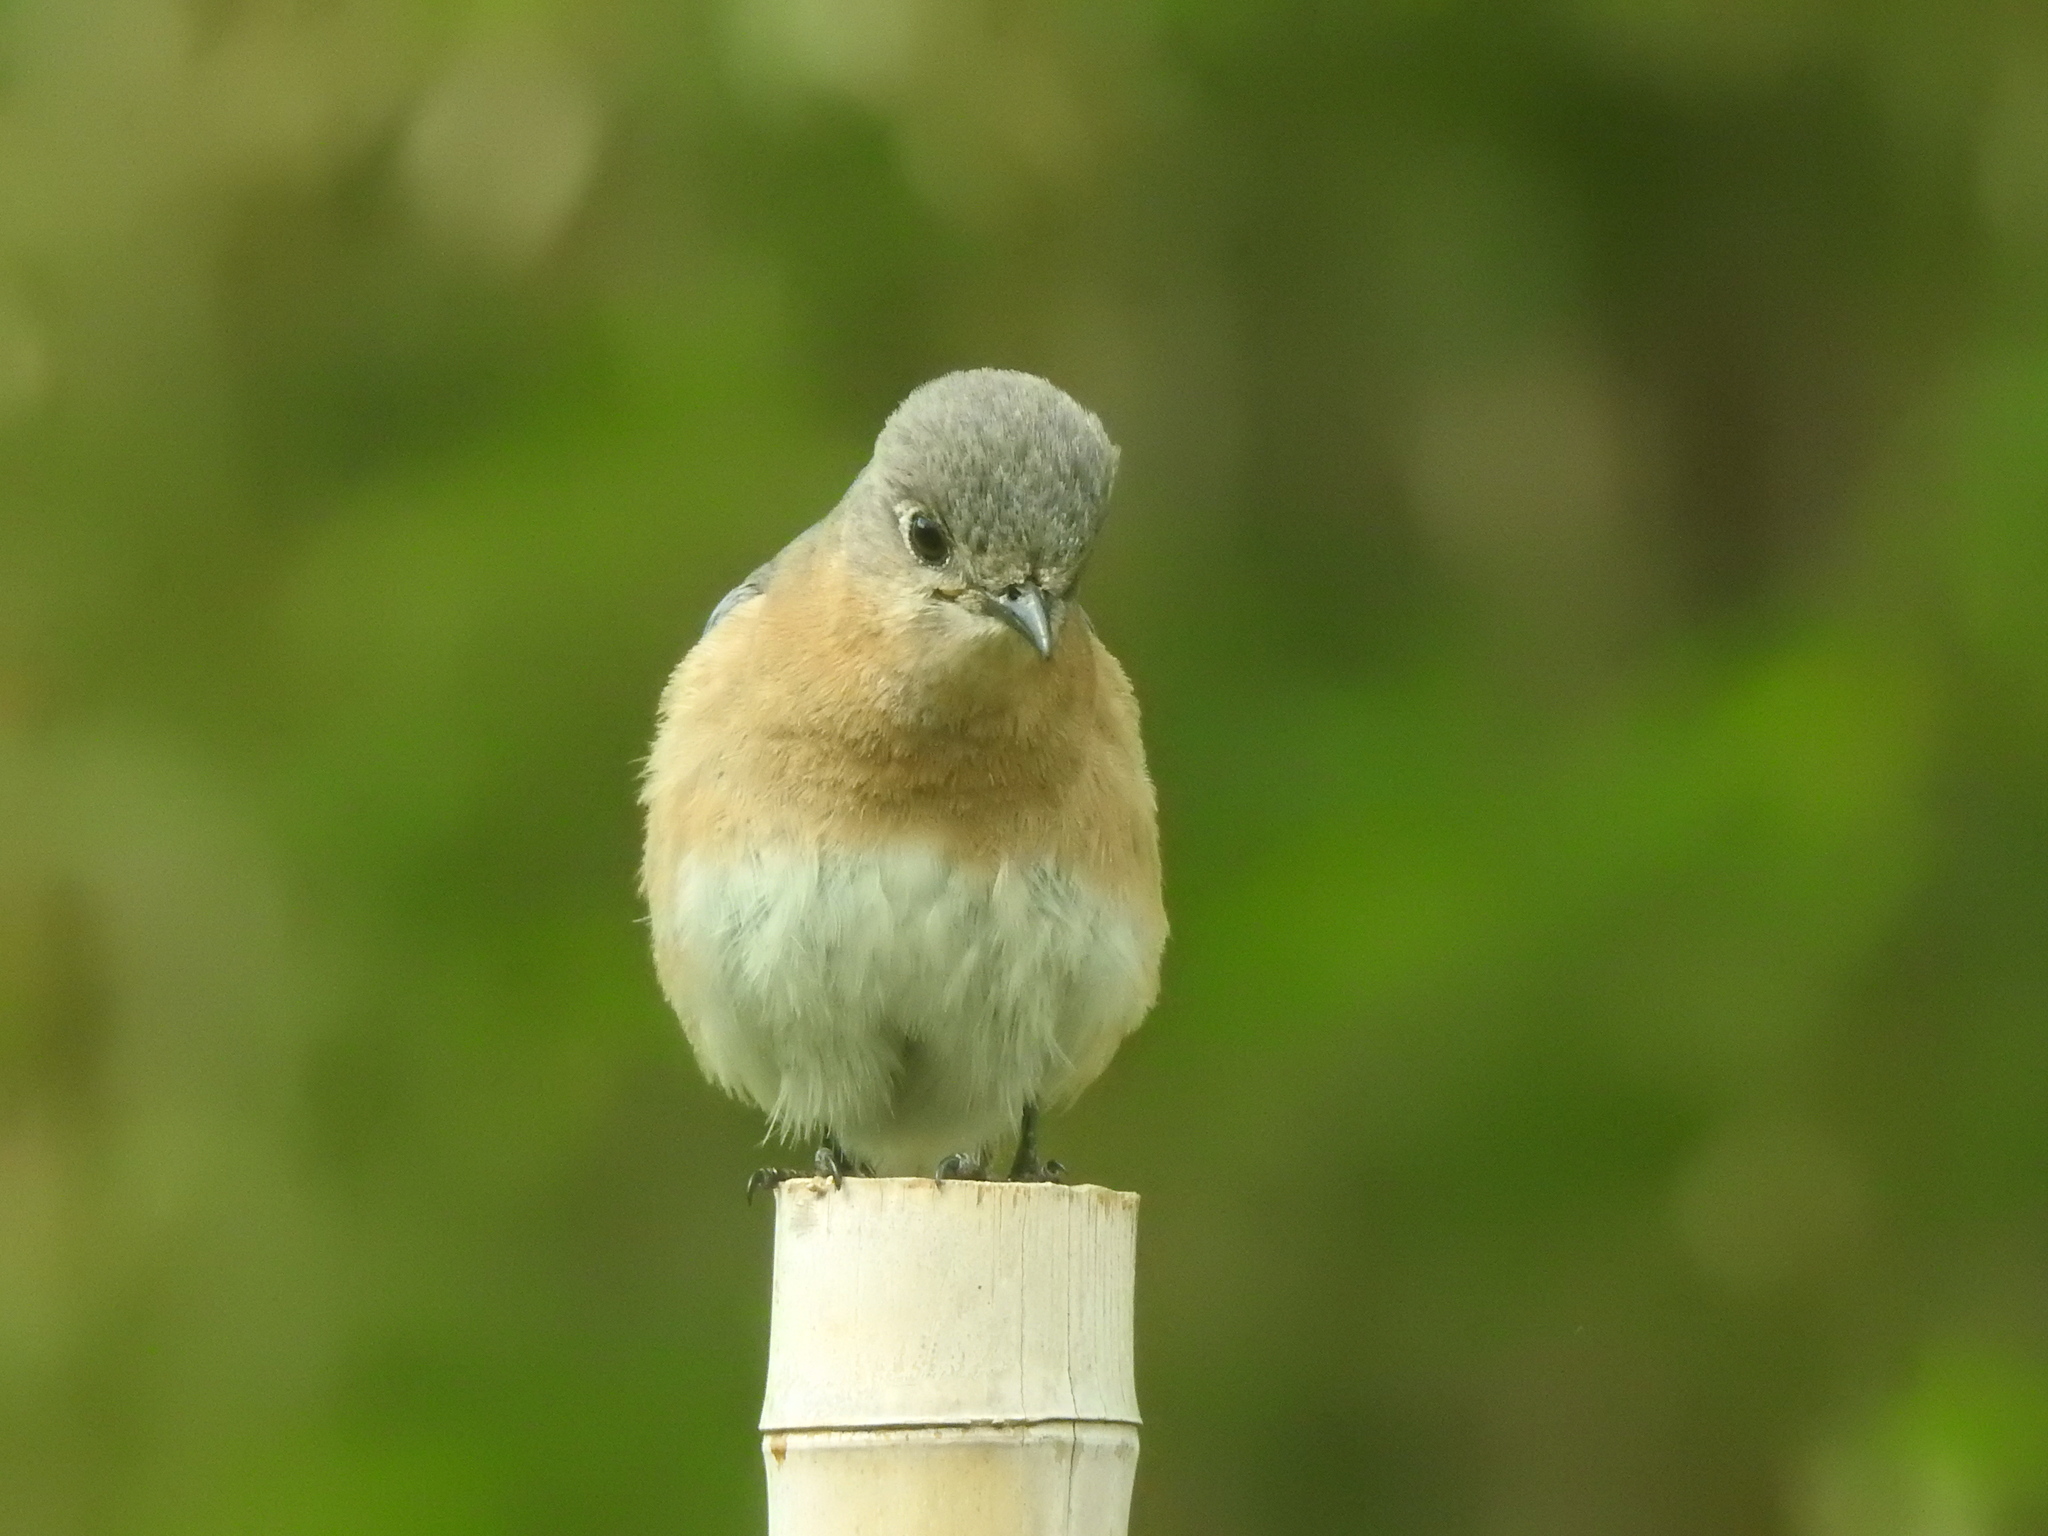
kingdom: Animalia
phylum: Chordata
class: Aves
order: Passeriformes
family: Turdidae
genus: Sialia
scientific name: Sialia sialis
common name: Eastern bluebird
